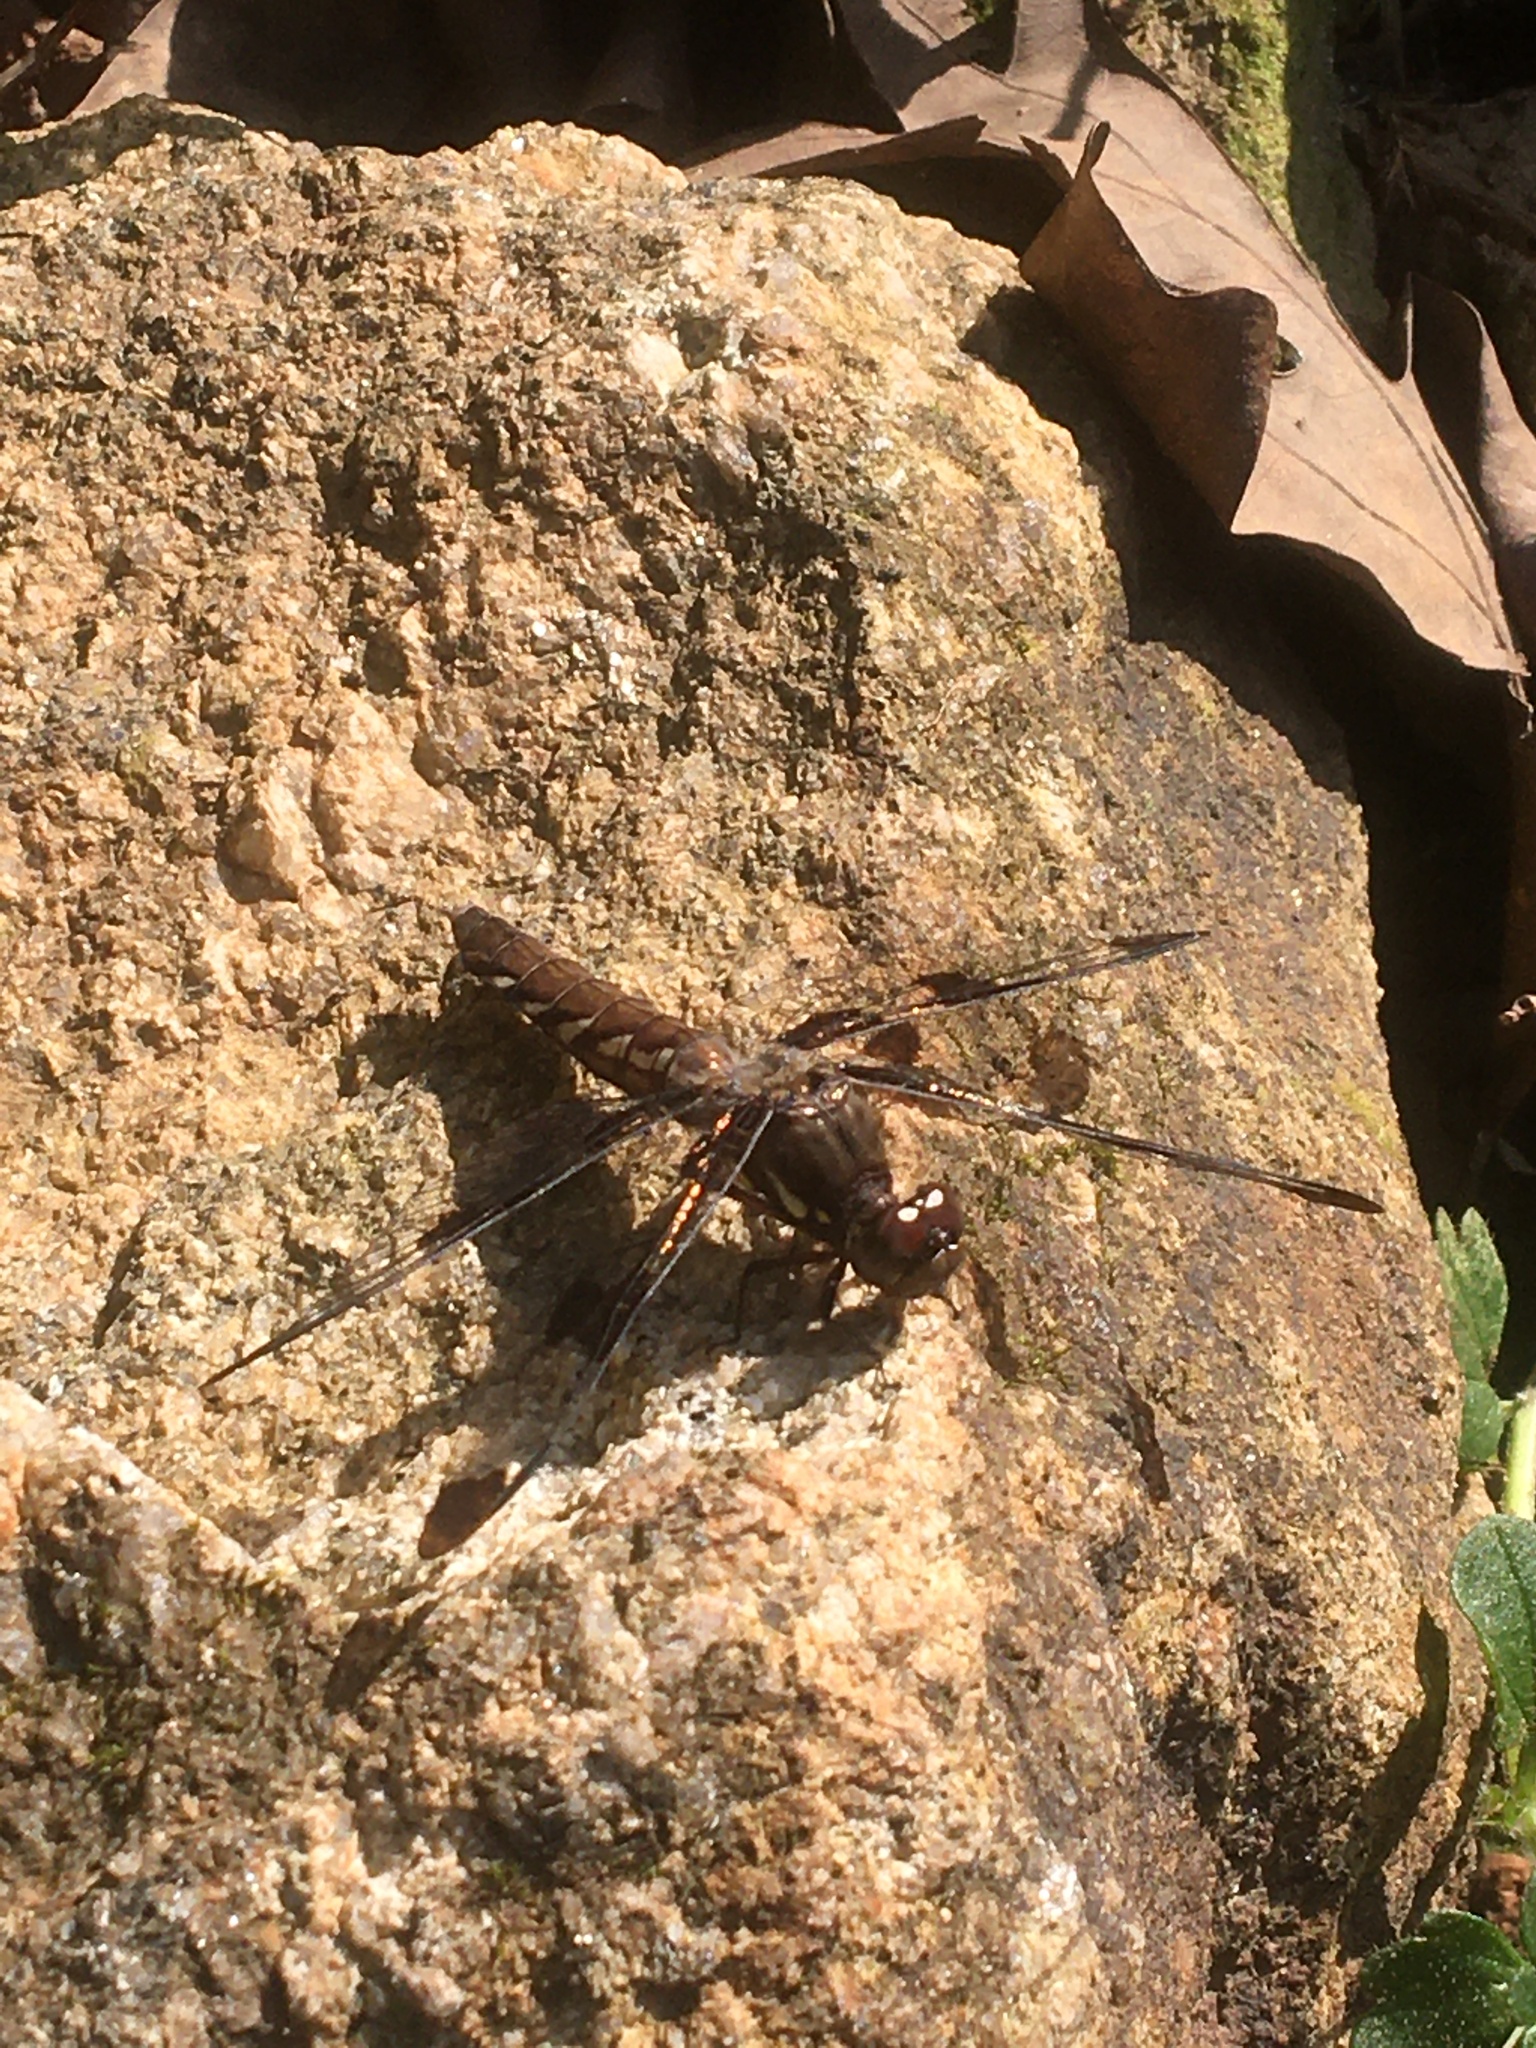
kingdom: Animalia
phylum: Arthropoda
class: Insecta
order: Odonata
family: Libellulidae
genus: Plathemis
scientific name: Plathemis lydia
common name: Common whitetail
